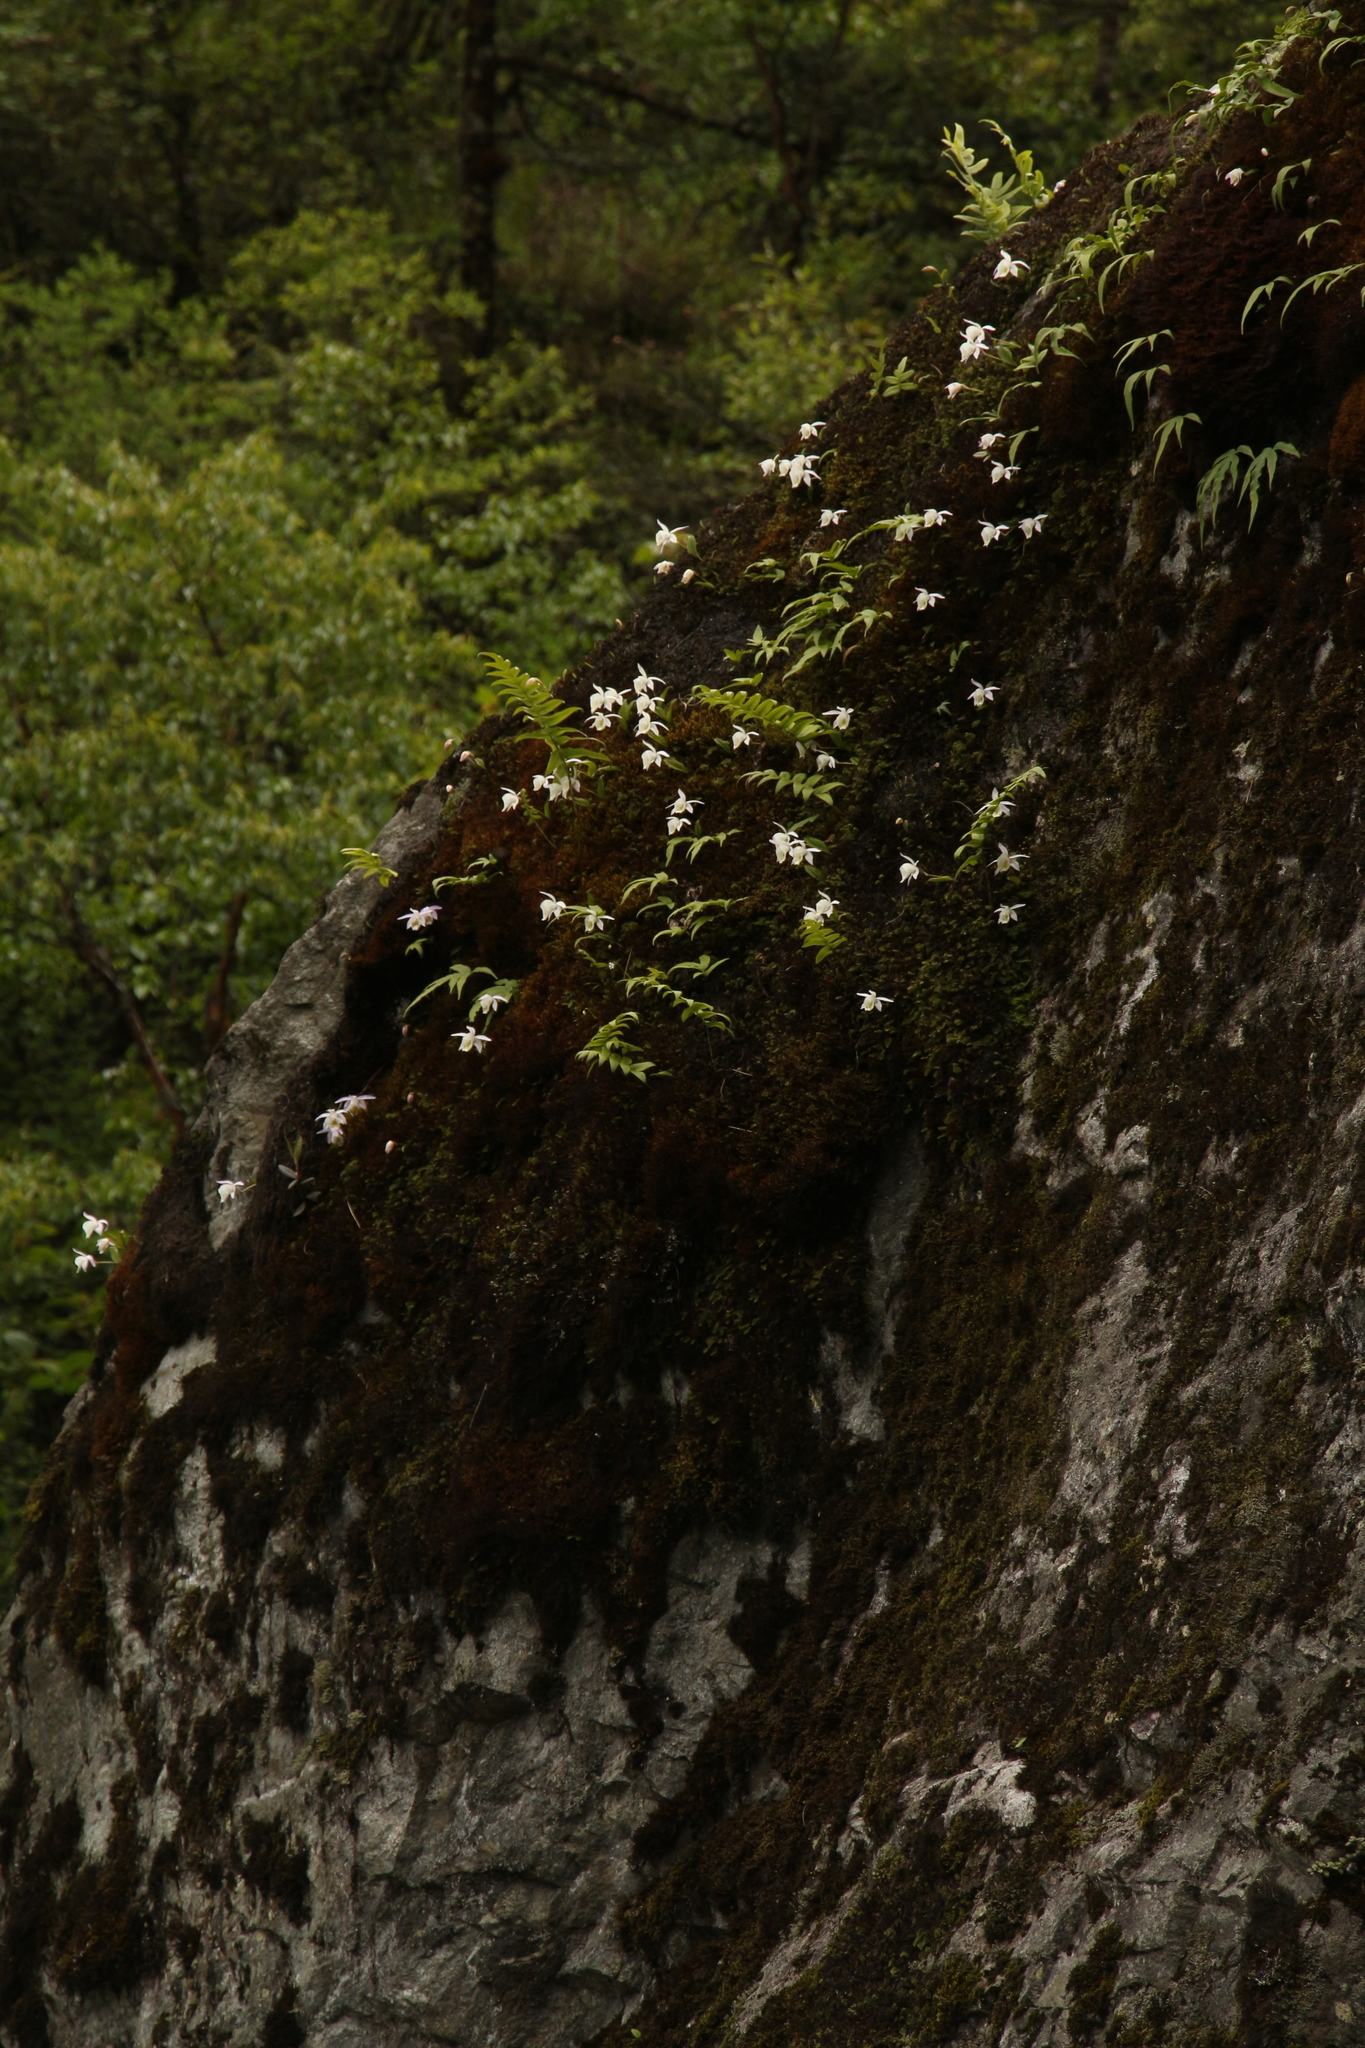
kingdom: Plantae
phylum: Tracheophyta
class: Liliopsida
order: Asparagales
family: Orchidaceae
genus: Pleione
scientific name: Pleione hookeriana
